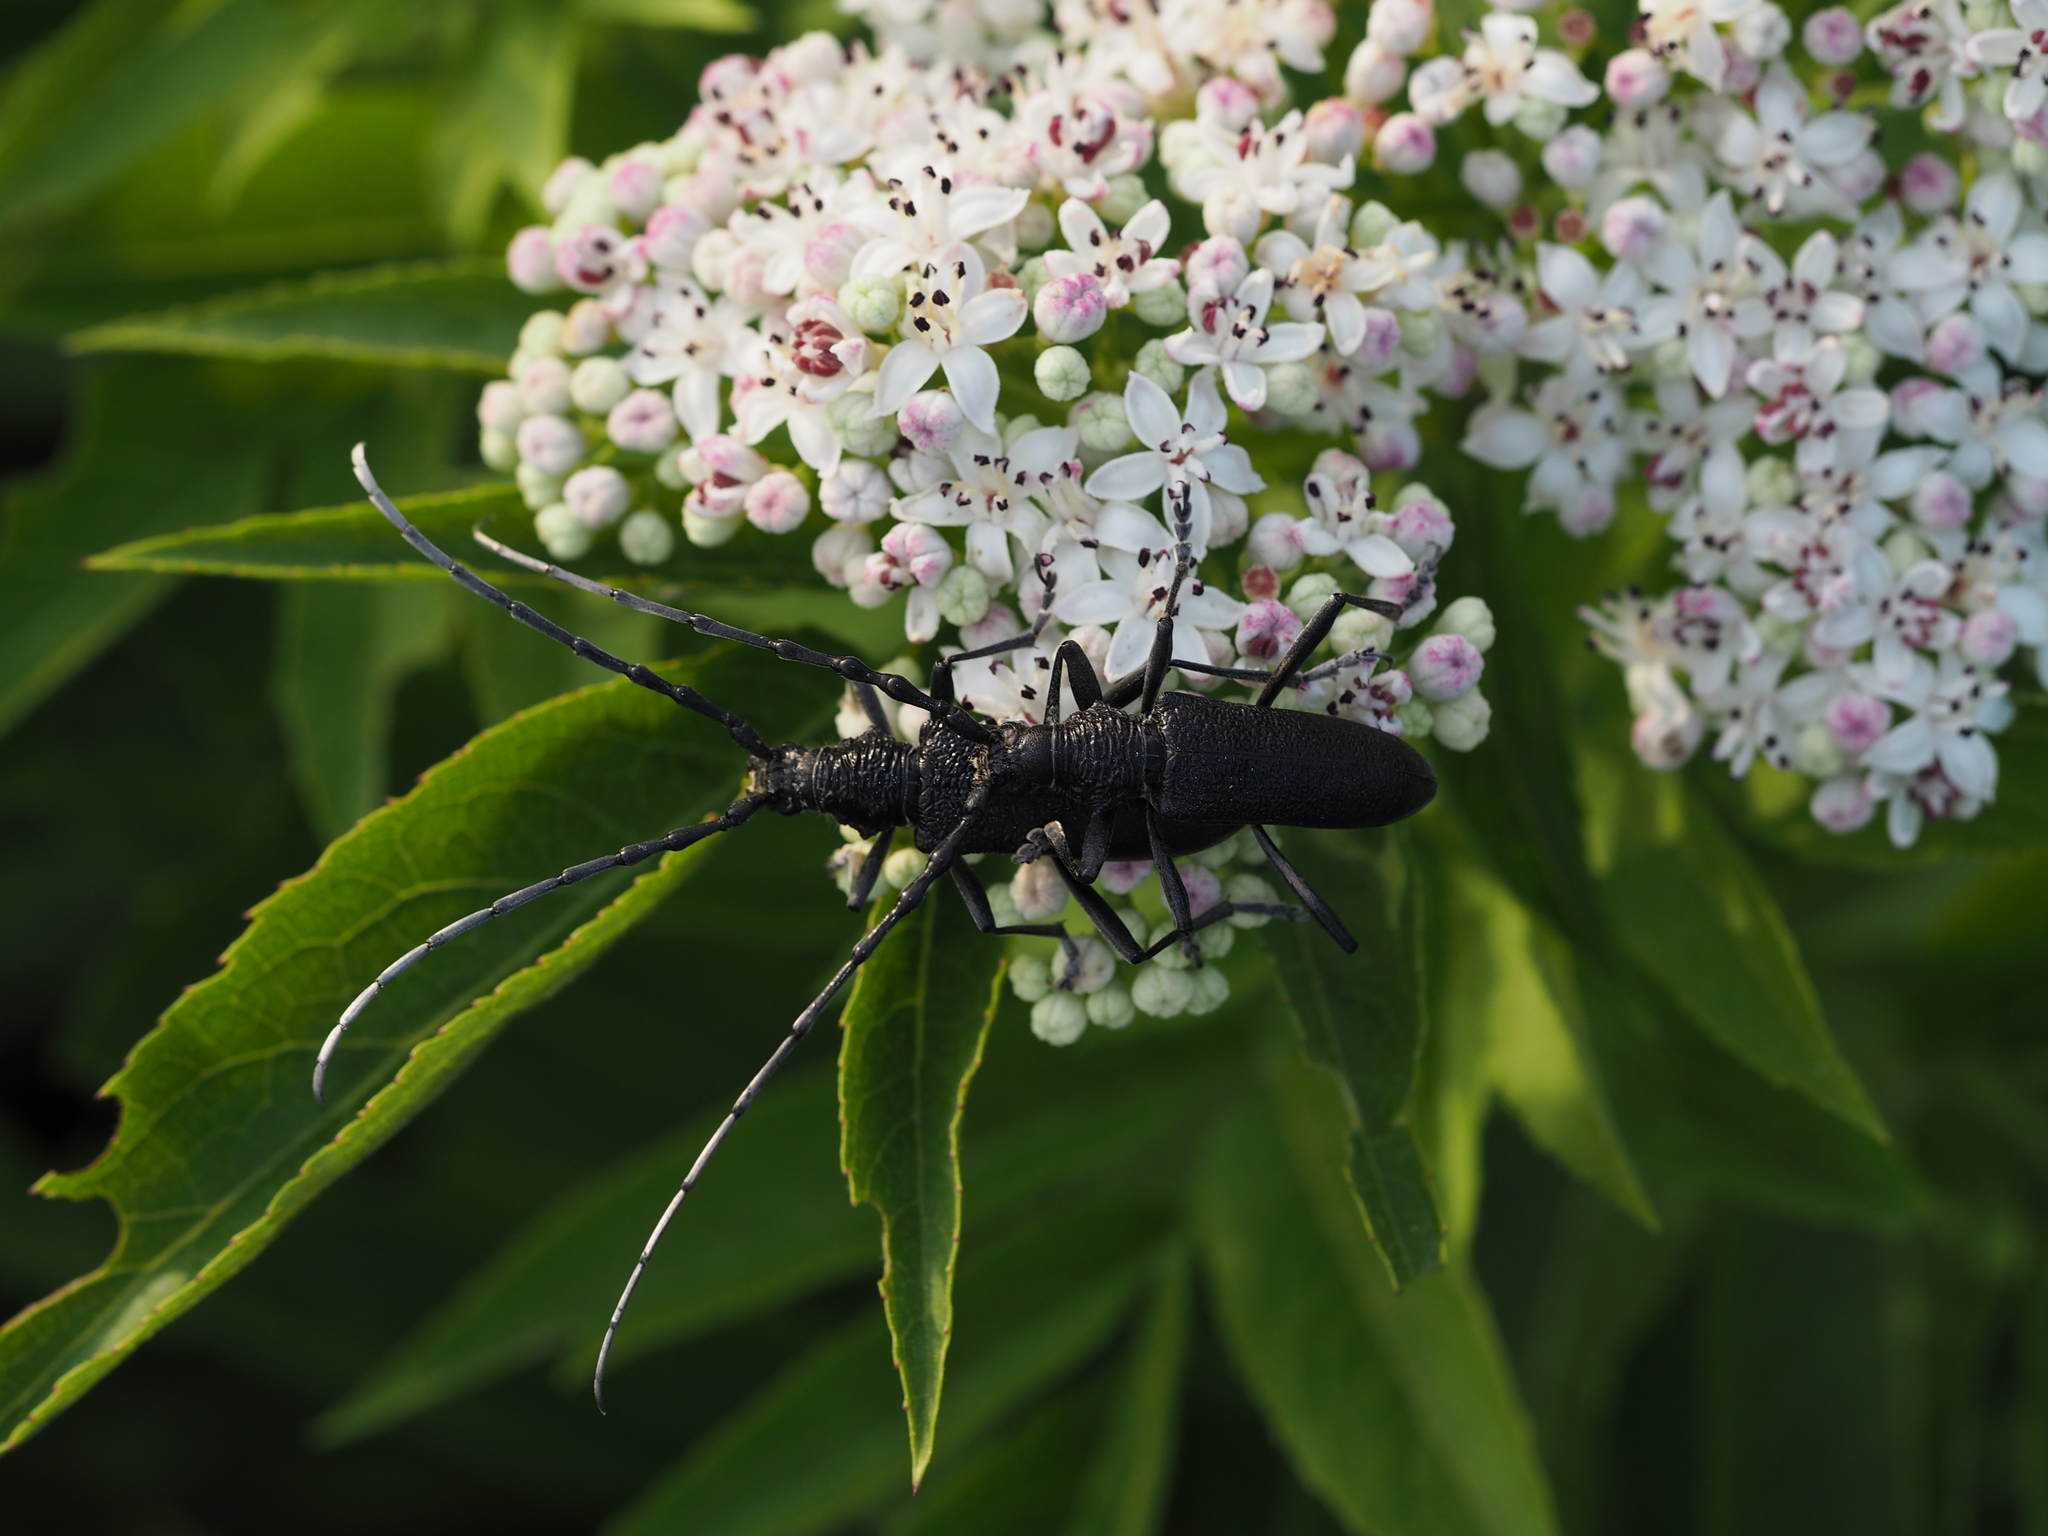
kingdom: Animalia
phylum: Arthropoda
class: Insecta
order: Coleoptera
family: Cerambycidae
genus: Cerambyx
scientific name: Cerambyx scopolii
